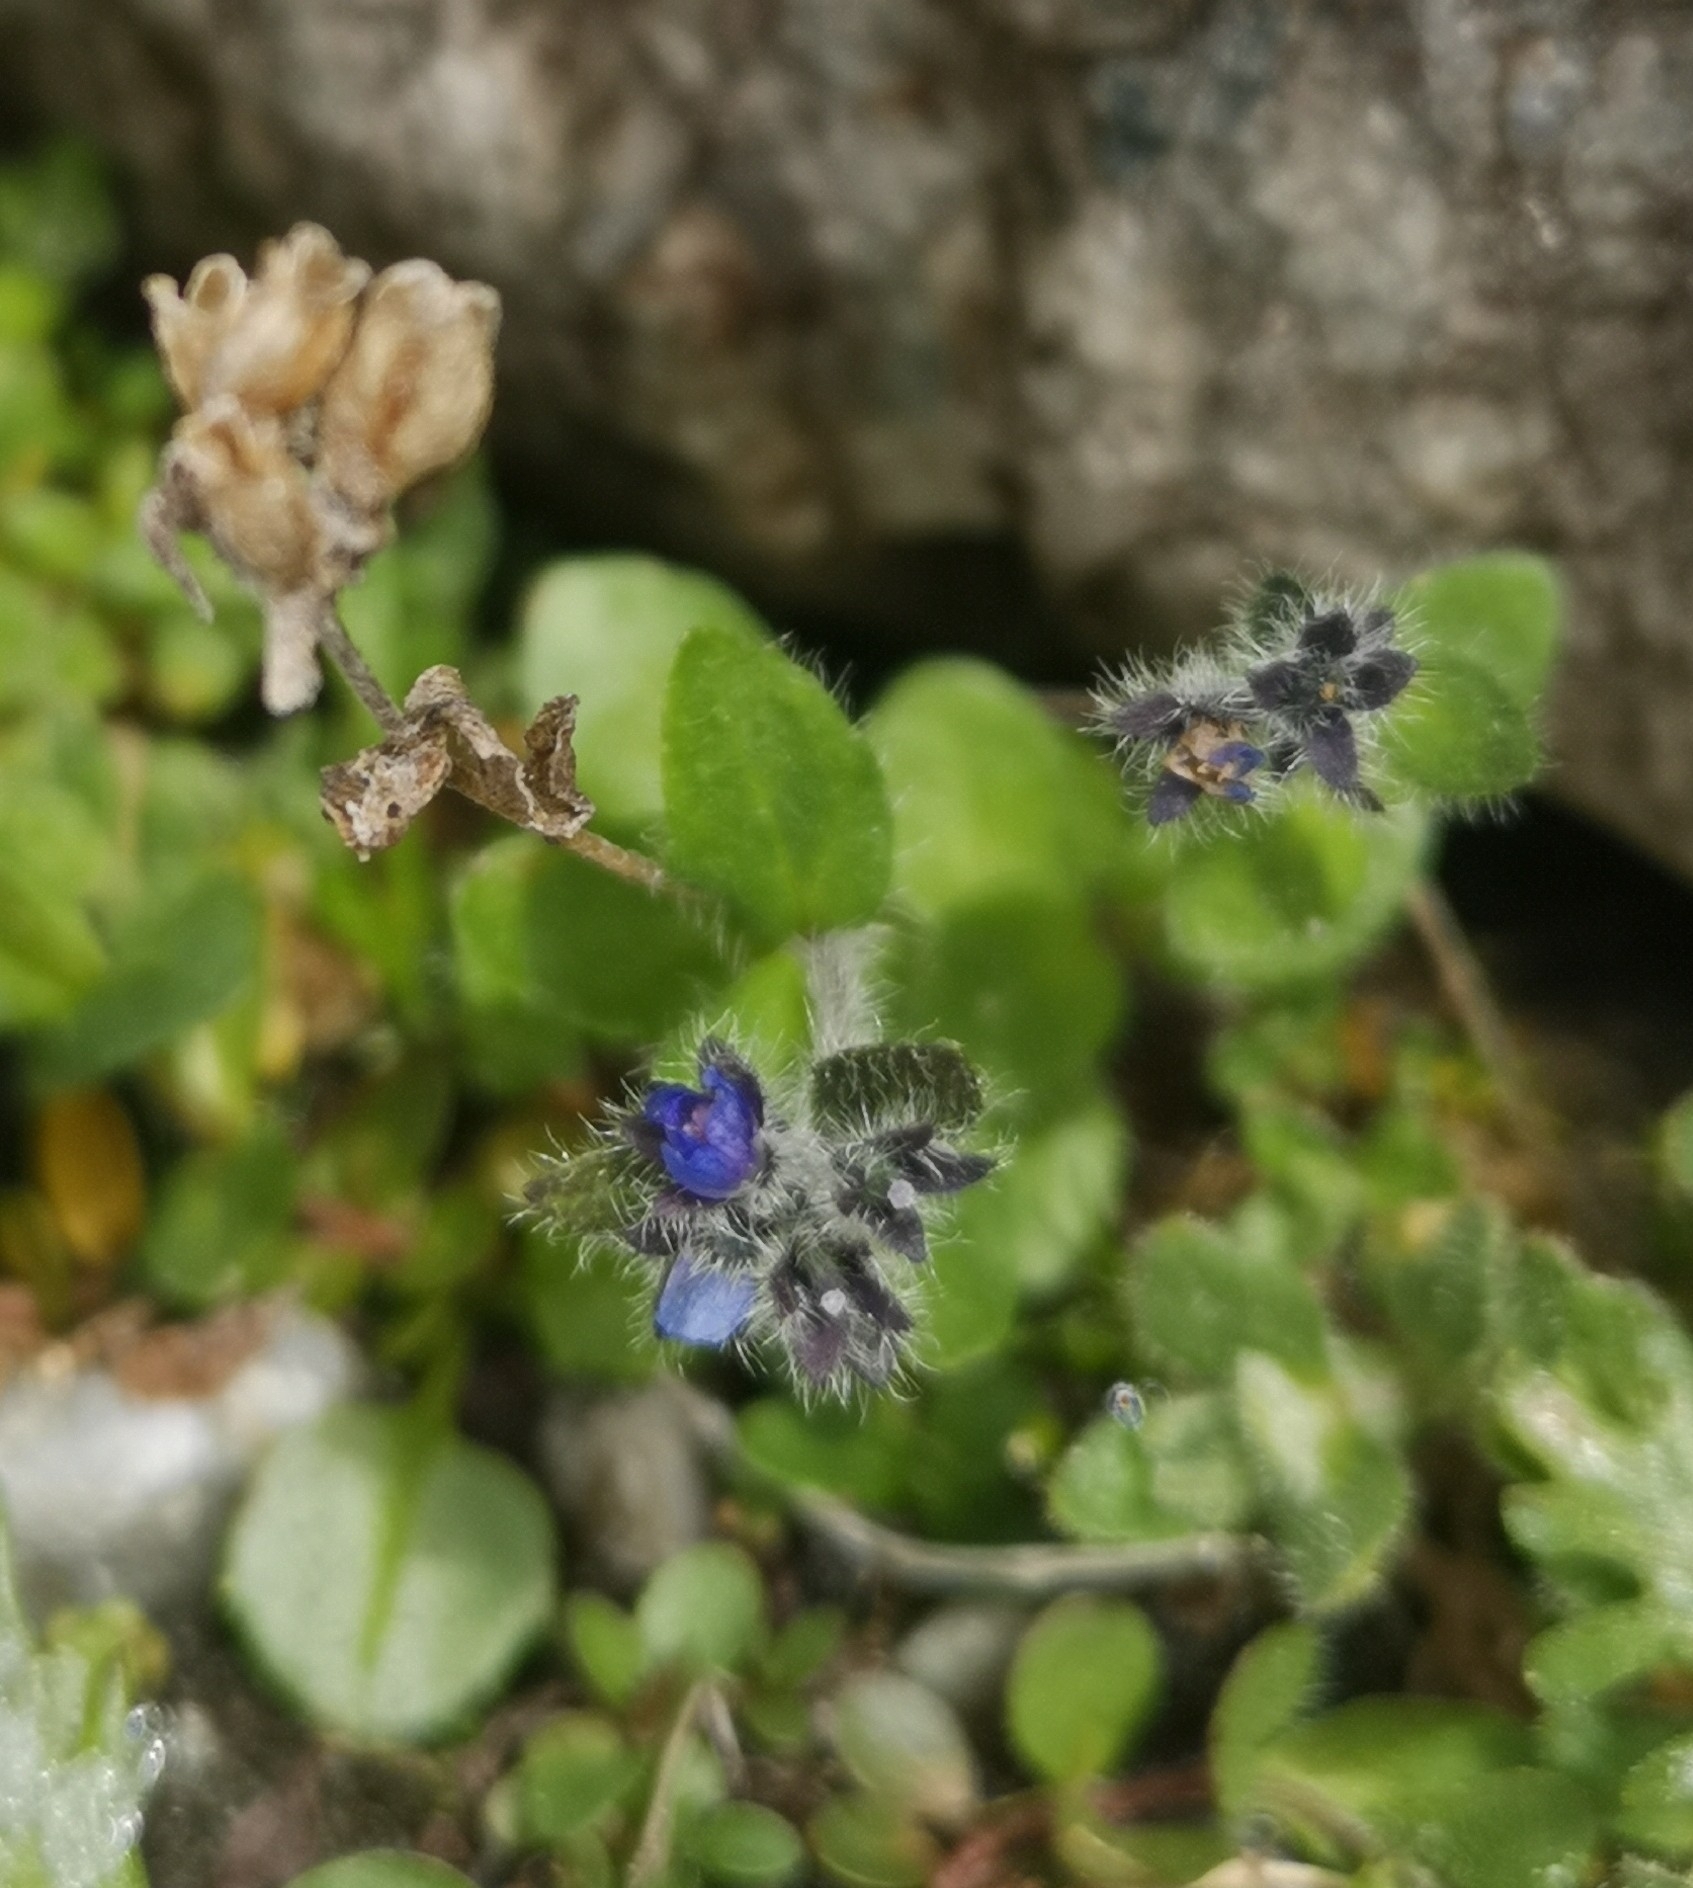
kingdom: Plantae
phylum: Tracheophyta
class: Magnoliopsida
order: Lamiales
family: Plantaginaceae
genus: Veronica
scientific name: Veronica alpina
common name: Alpine speedwell
